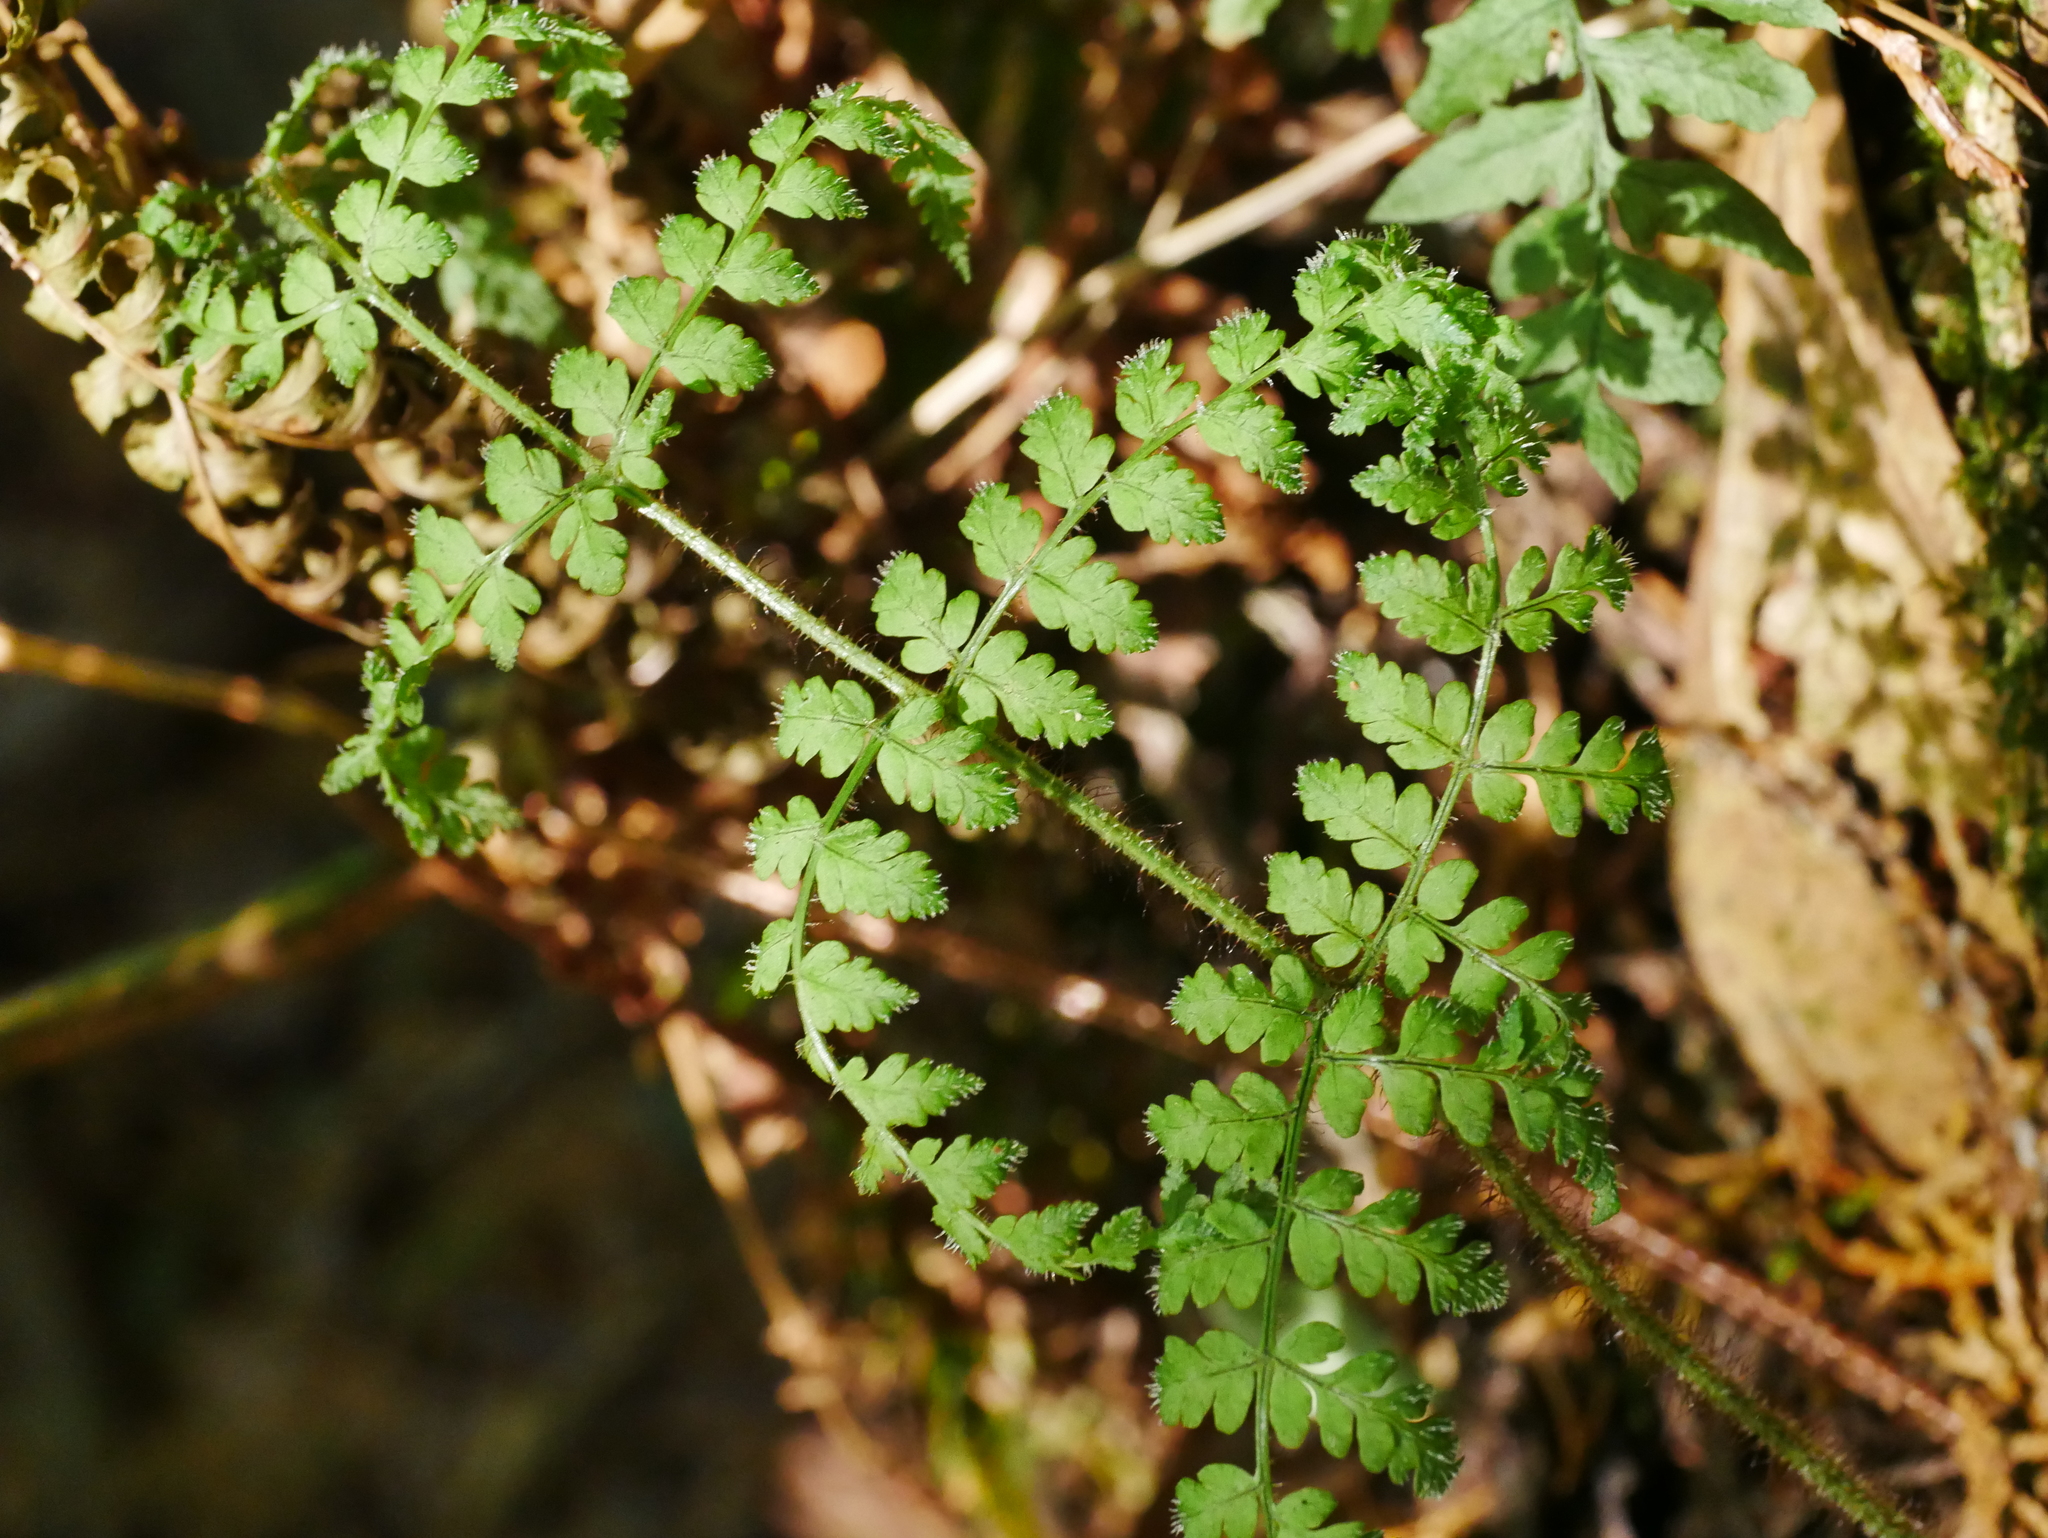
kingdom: Plantae
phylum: Tracheophyta
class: Polypodiopsida
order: Polypodiales
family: Dryopteridaceae
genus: Dryopteris
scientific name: Dryopteris squamiseta
